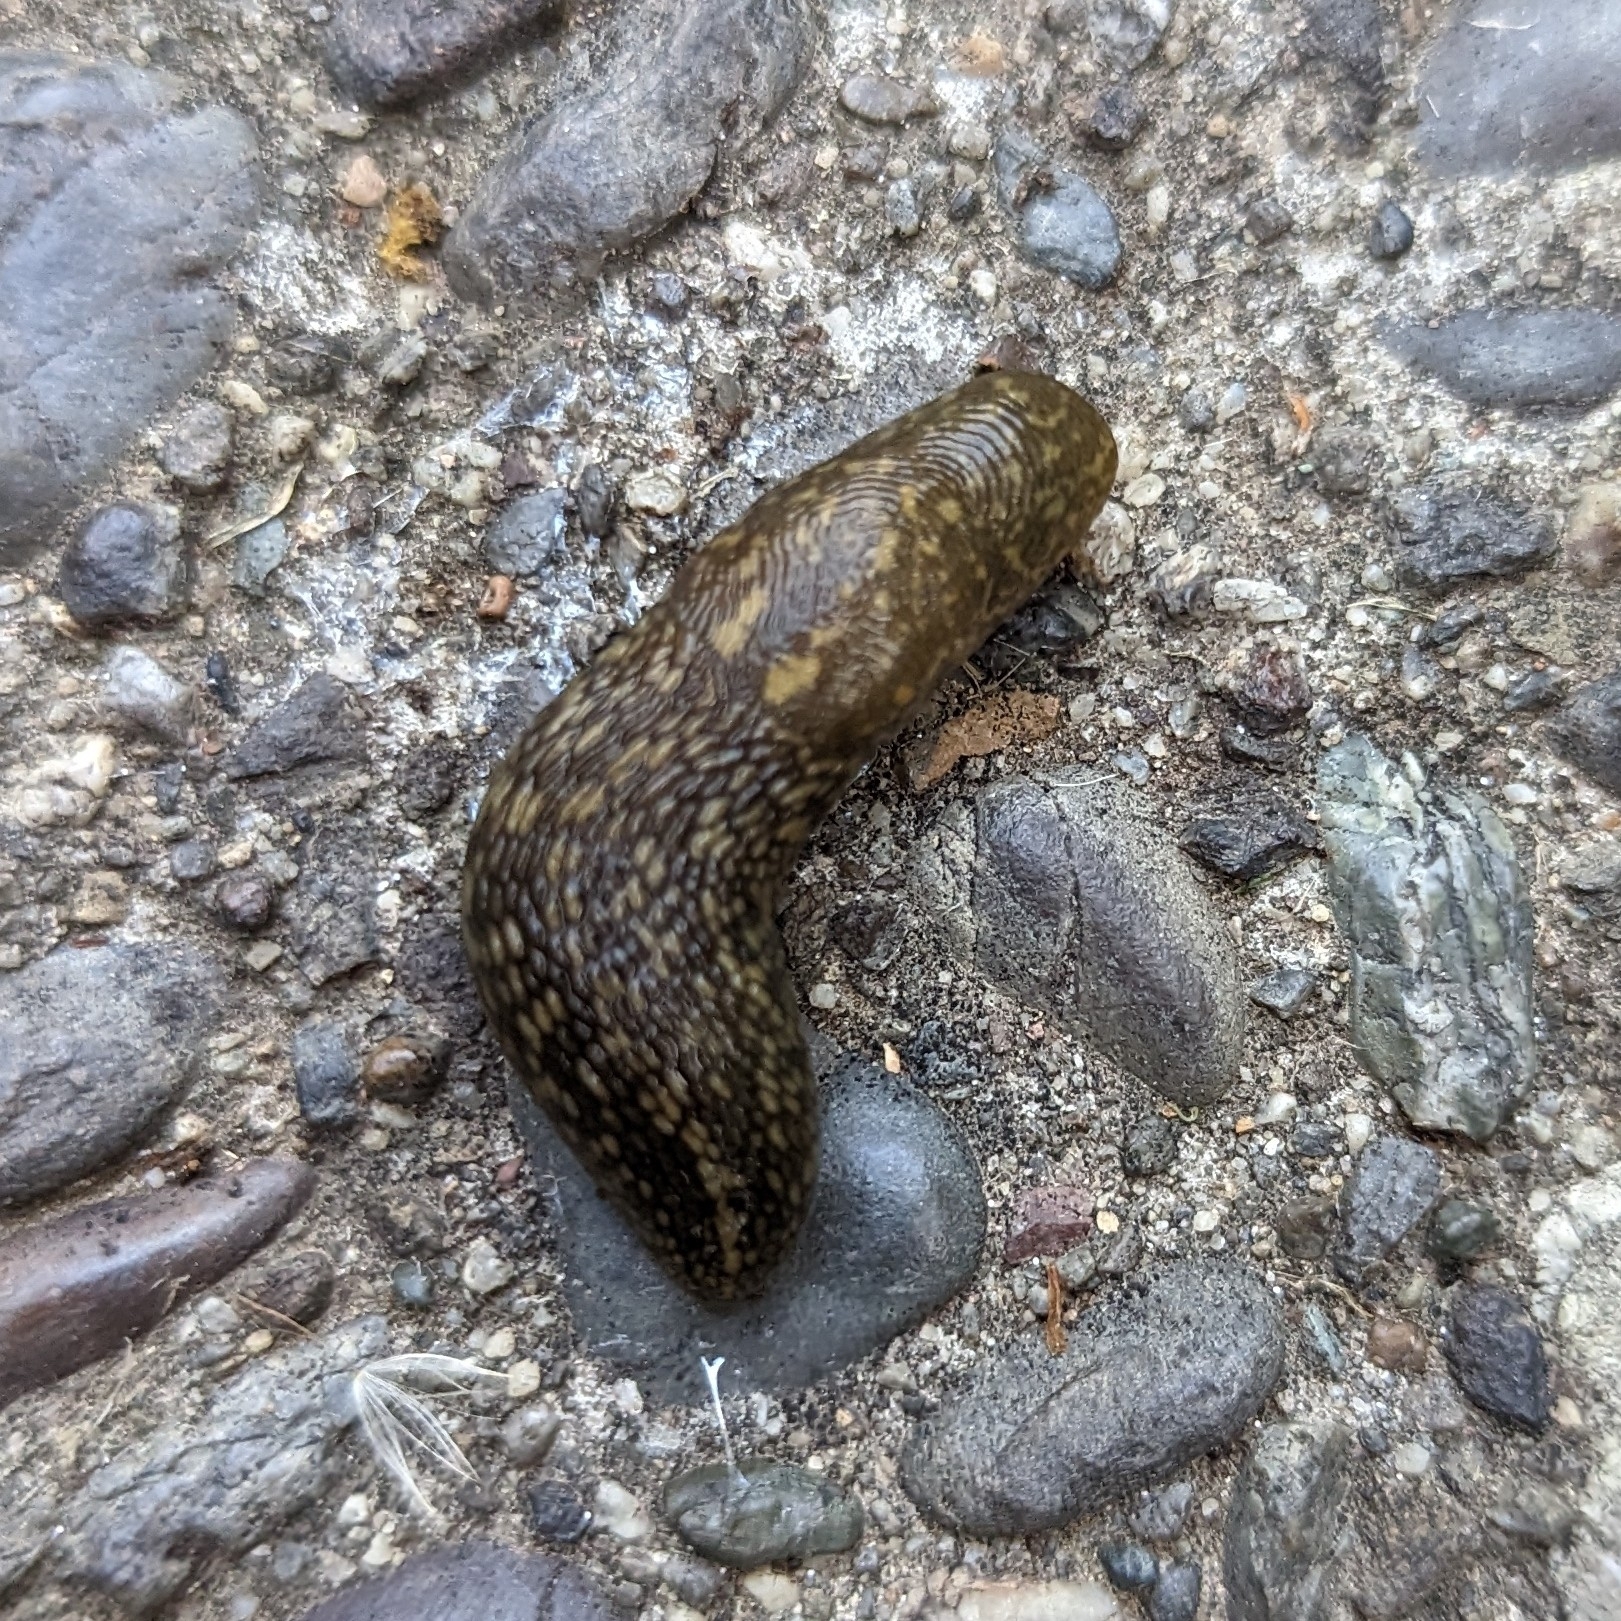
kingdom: Animalia
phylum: Mollusca
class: Gastropoda
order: Stylommatophora
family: Limacidae
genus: Limacus
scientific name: Limacus flavus
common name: Yellow gardenslug
